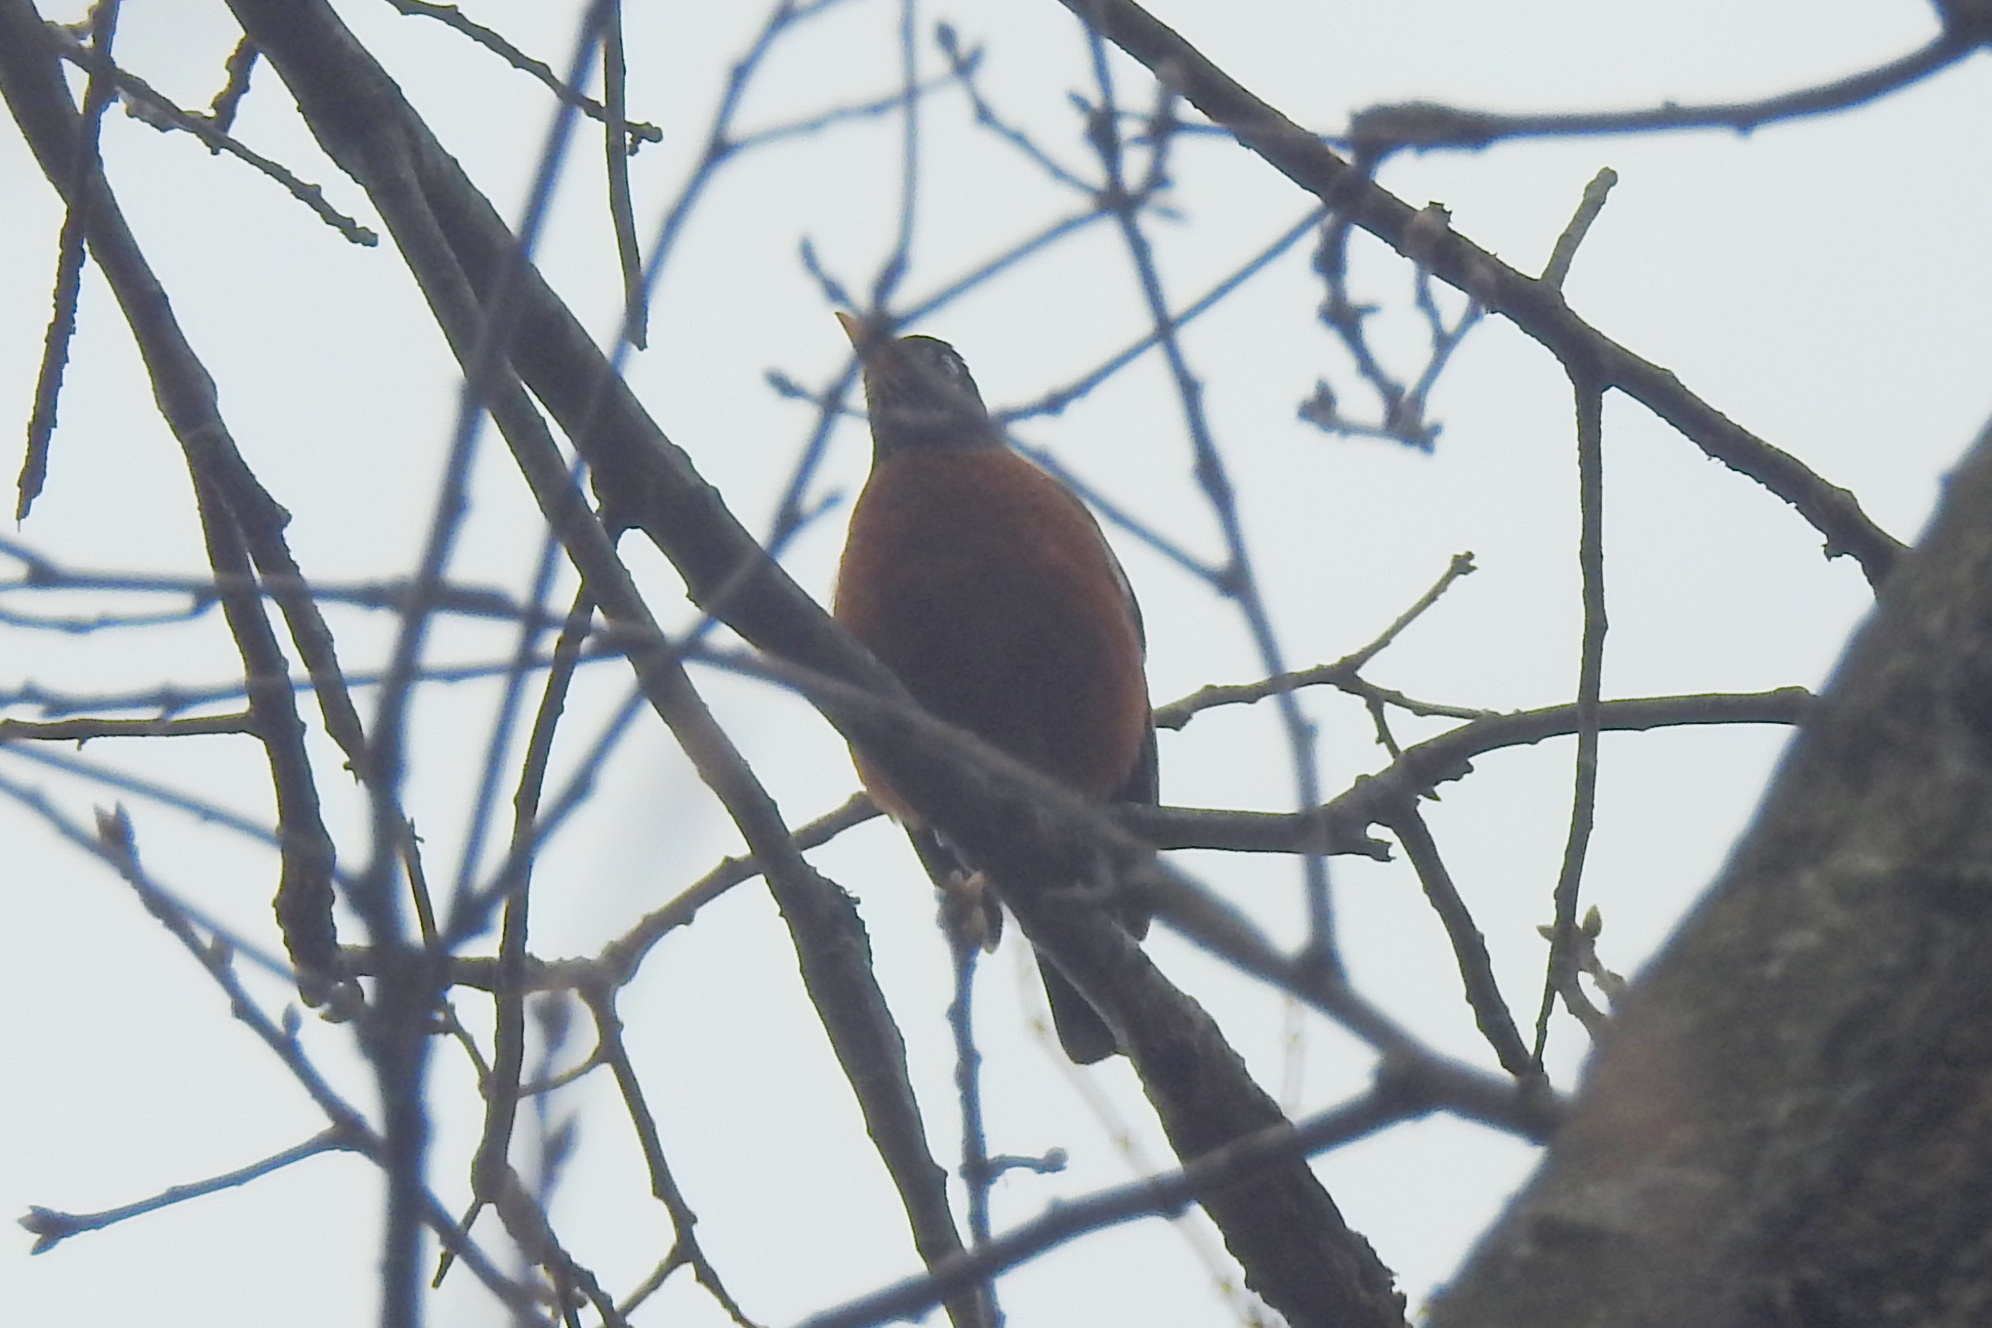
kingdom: Animalia
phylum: Chordata
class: Aves
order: Passeriformes
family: Turdidae
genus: Turdus
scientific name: Turdus migratorius
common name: American robin
